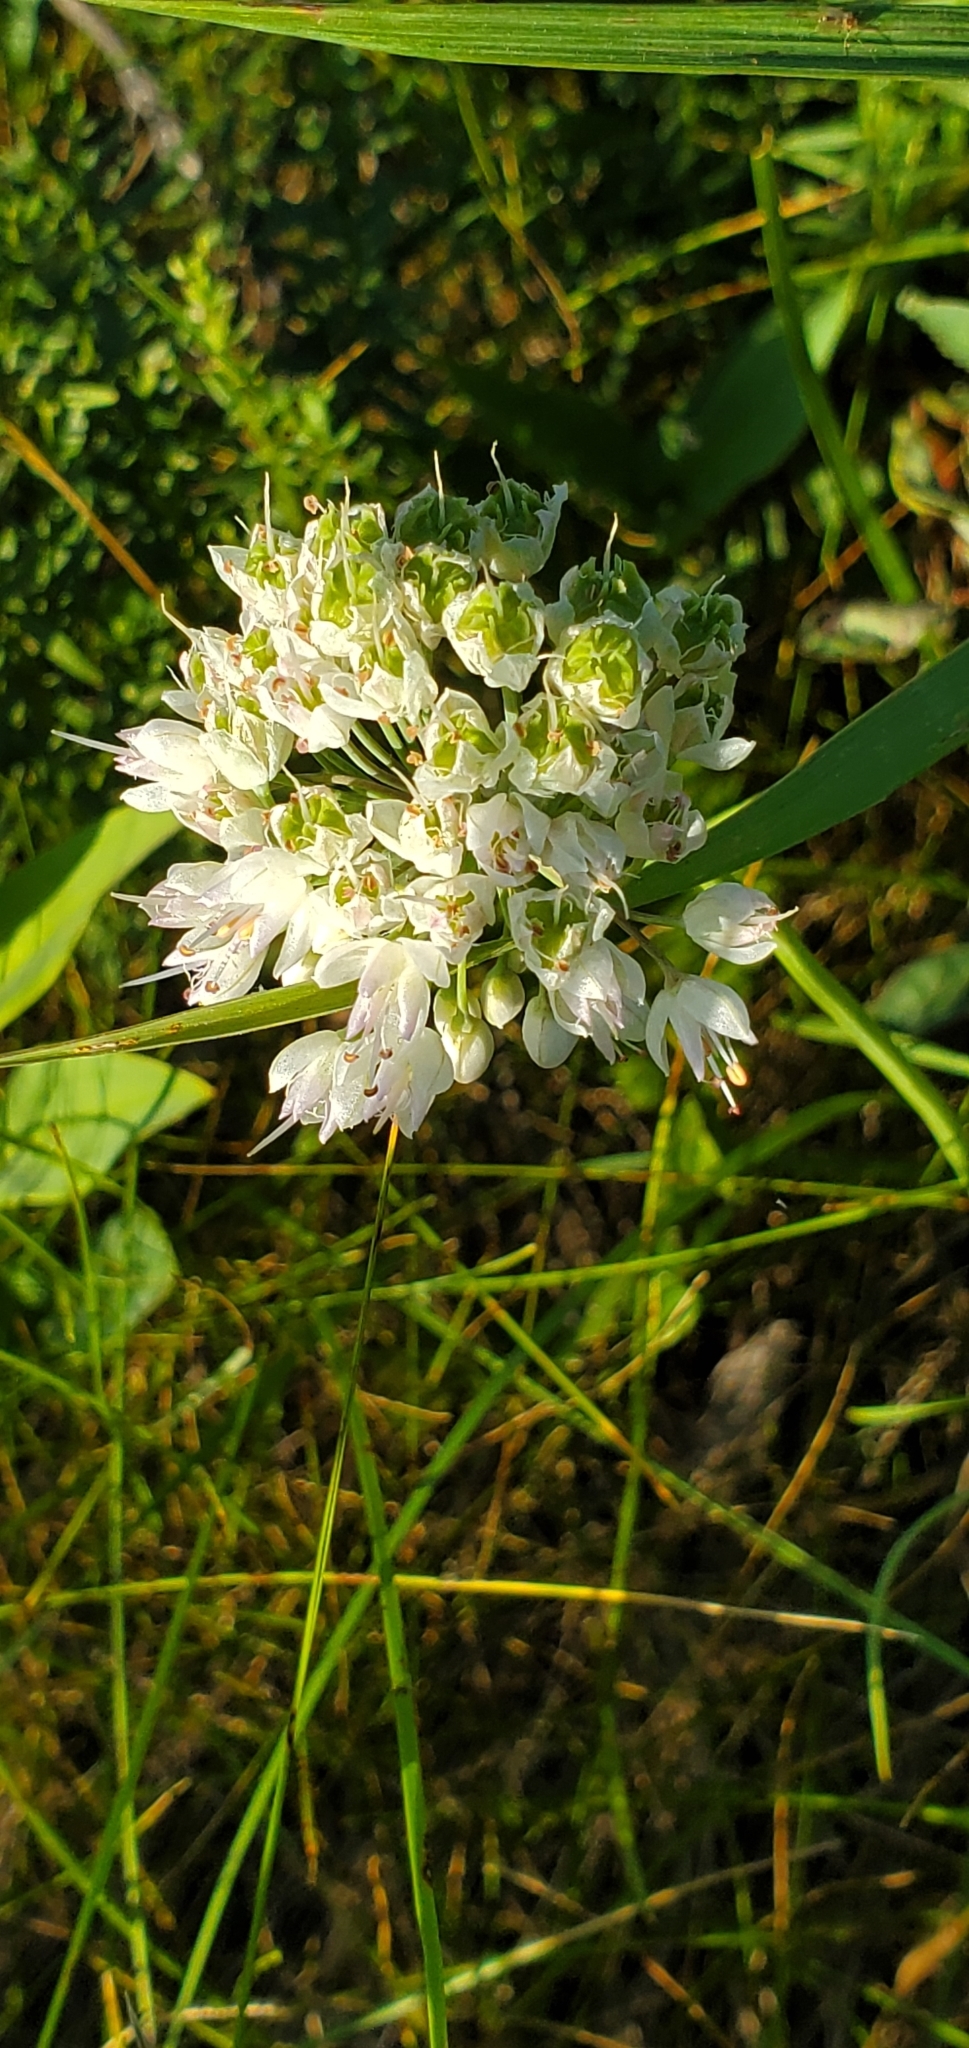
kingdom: Plantae
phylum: Tracheophyta
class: Liliopsida
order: Asparagales
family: Amaryllidaceae
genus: Allium
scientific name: Allium cernuum
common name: Nodding onion
